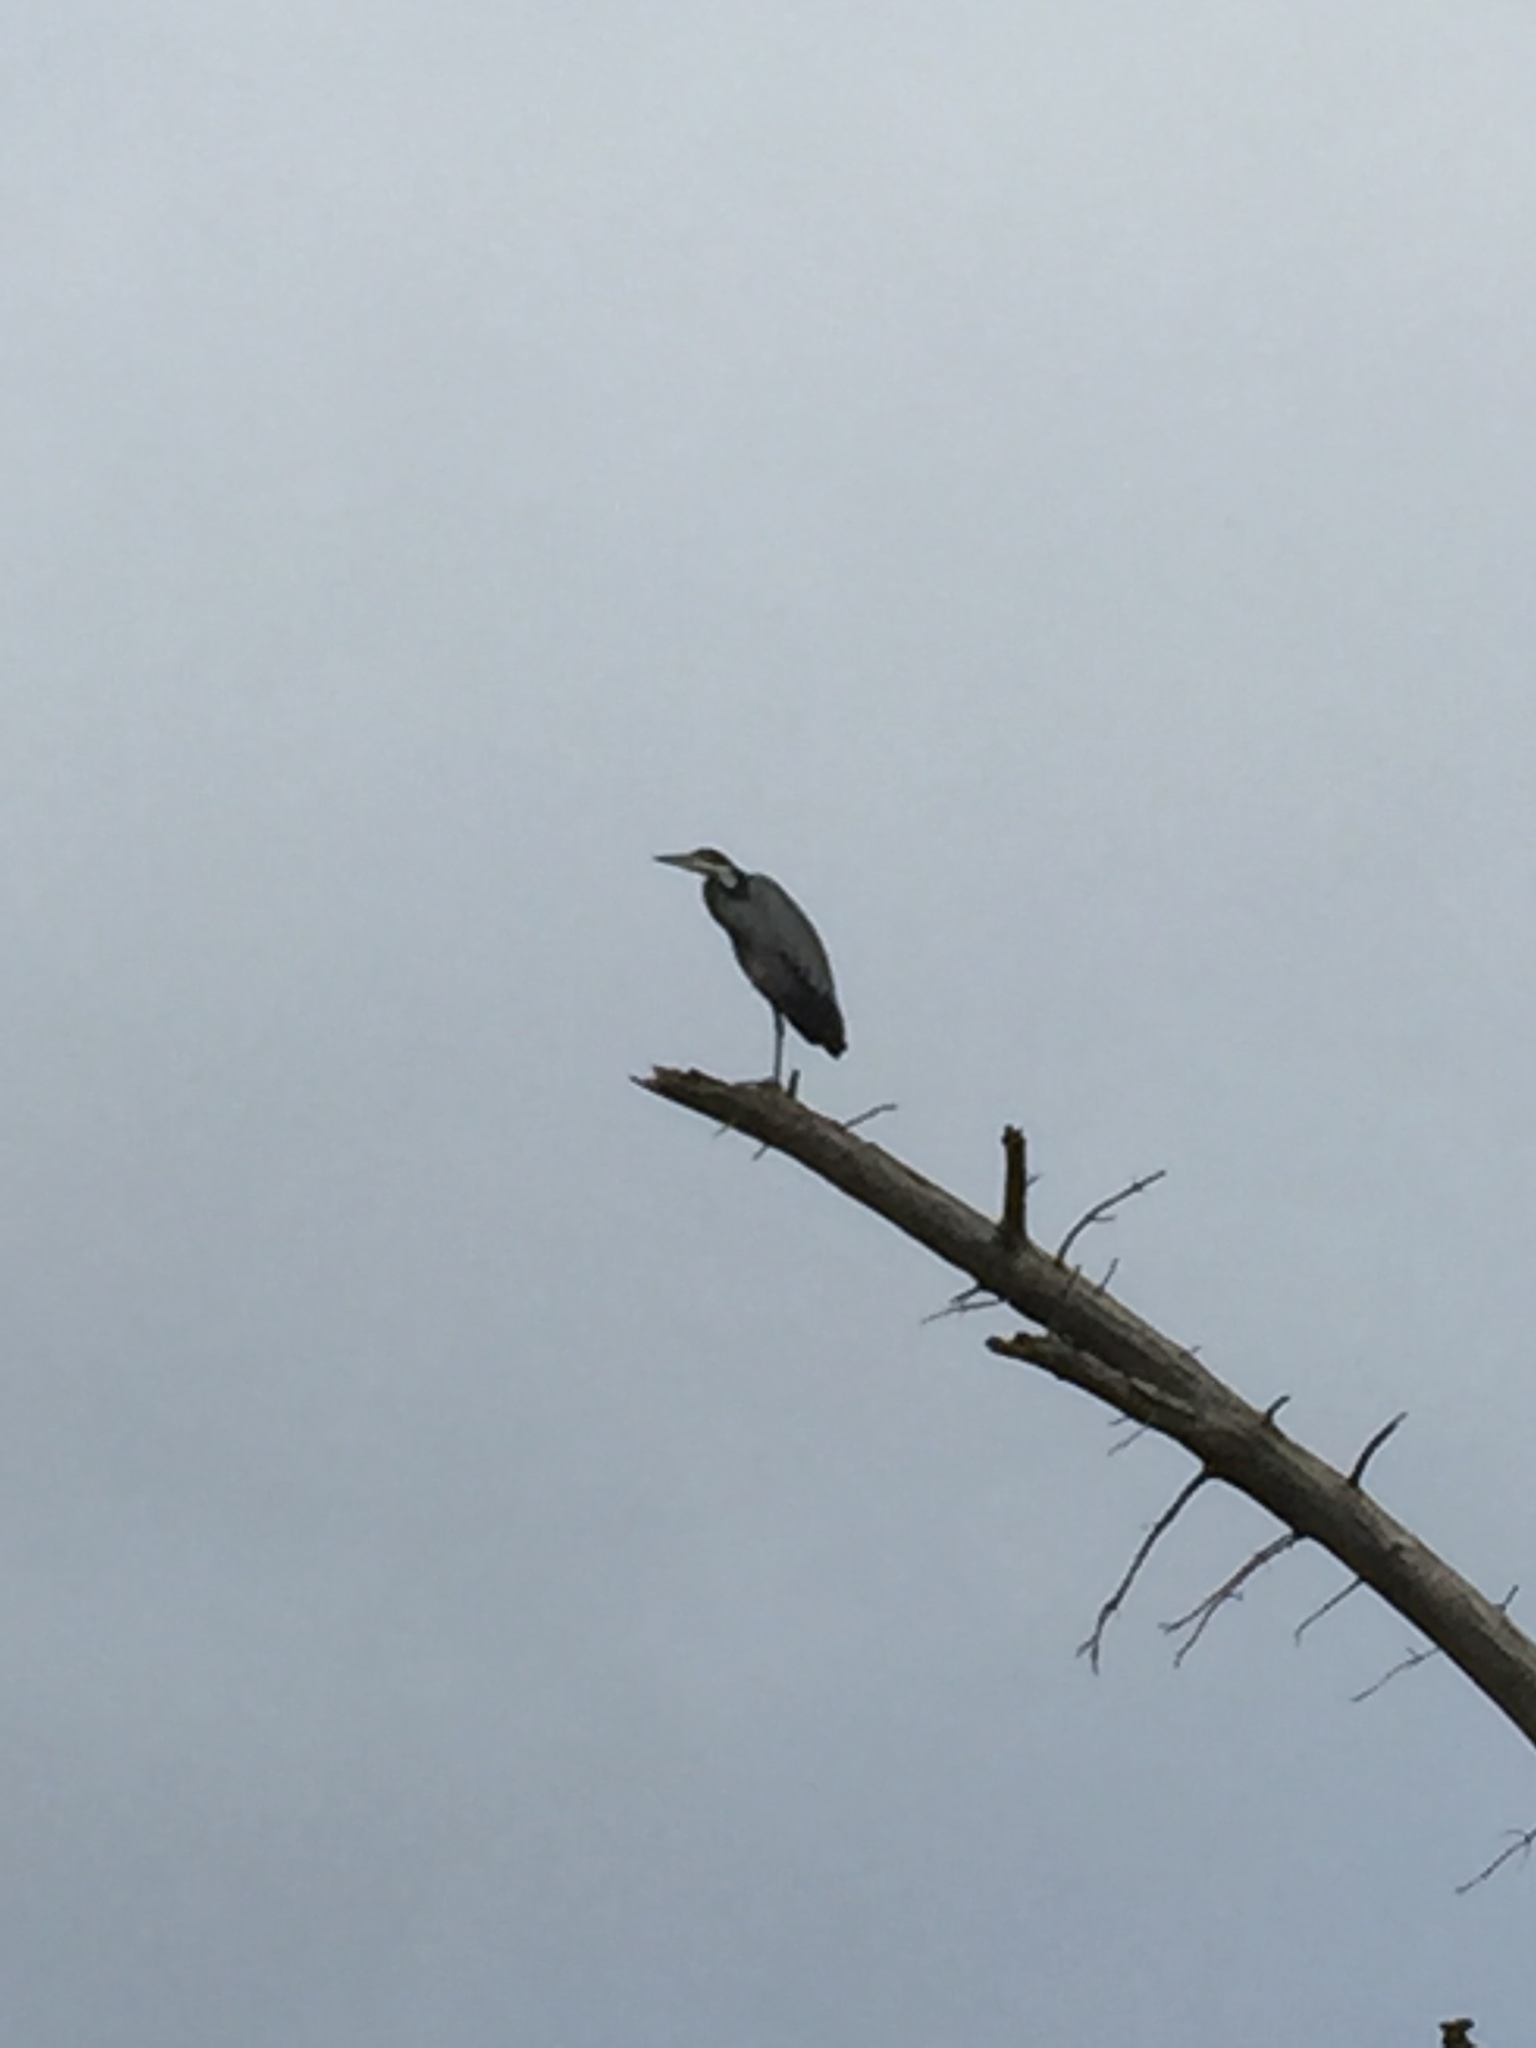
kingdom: Animalia
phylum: Chordata
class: Aves
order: Pelecaniformes
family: Ardeidae
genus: Ardea
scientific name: Ardea melanocephala
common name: Black-headed heron
